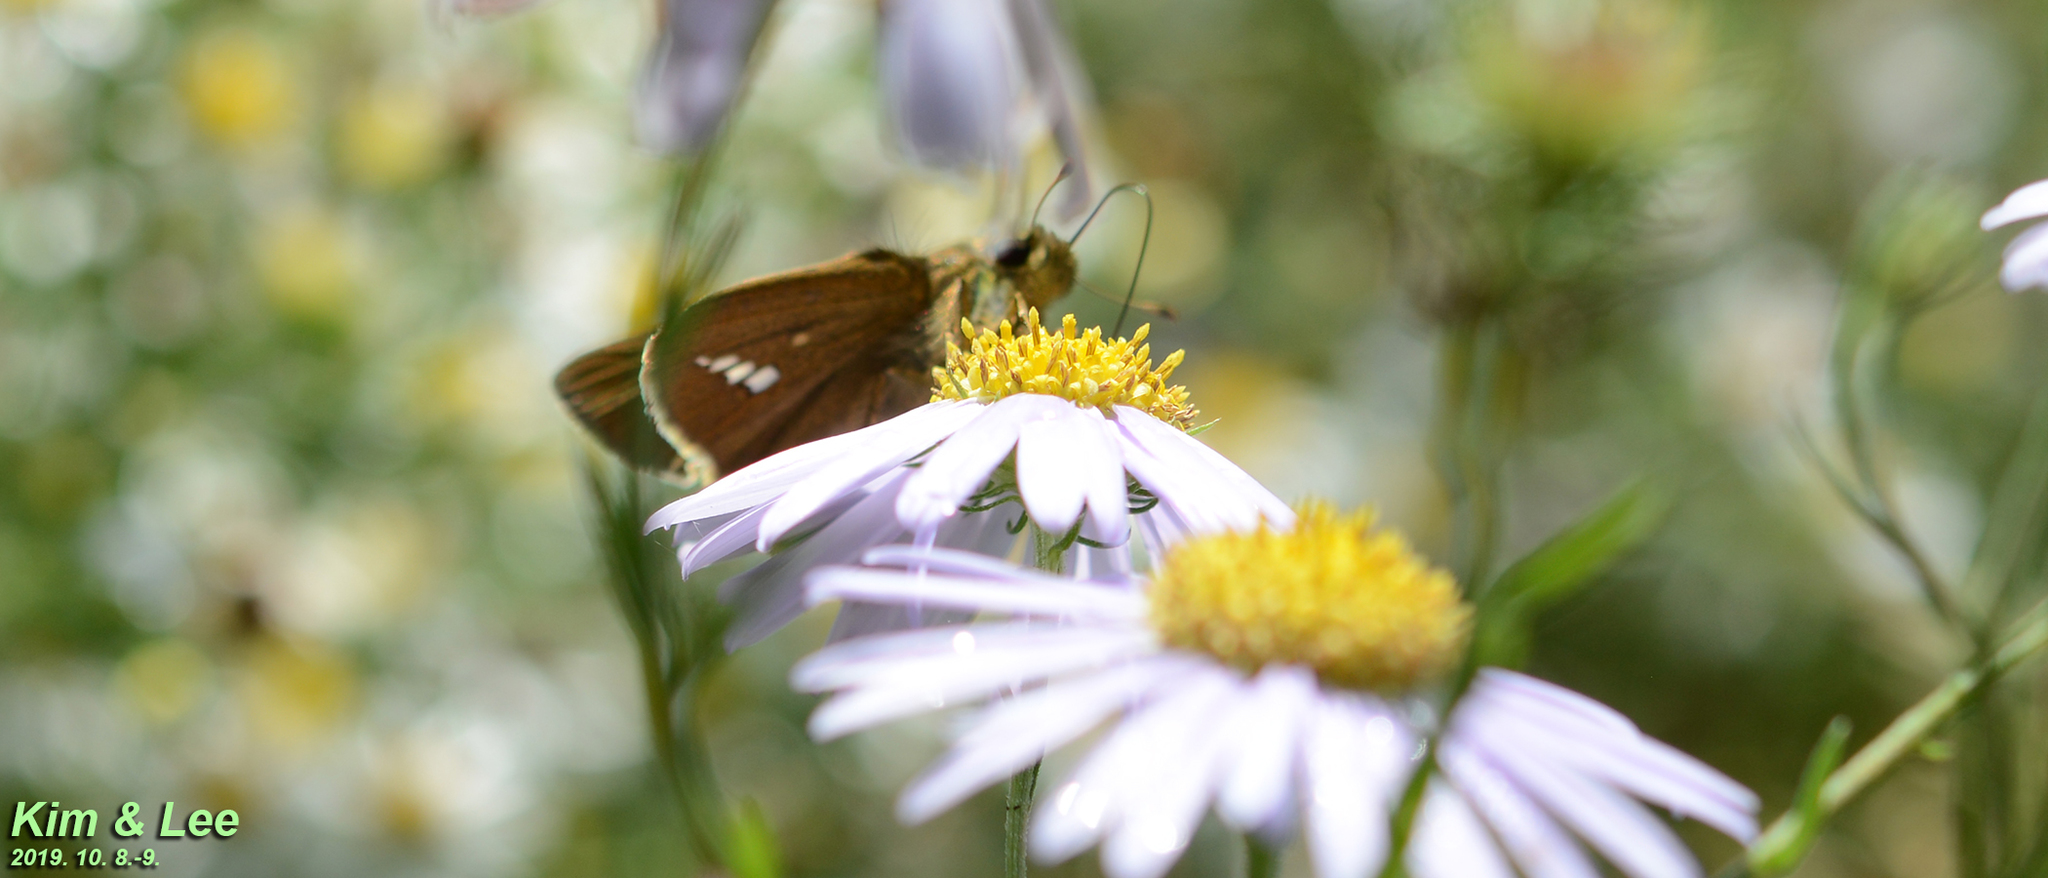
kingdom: Animalia
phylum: Arthropoda
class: Insecta
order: Lepidoptera
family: Hesperiidae
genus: Parnara
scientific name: Parnara guttatus
